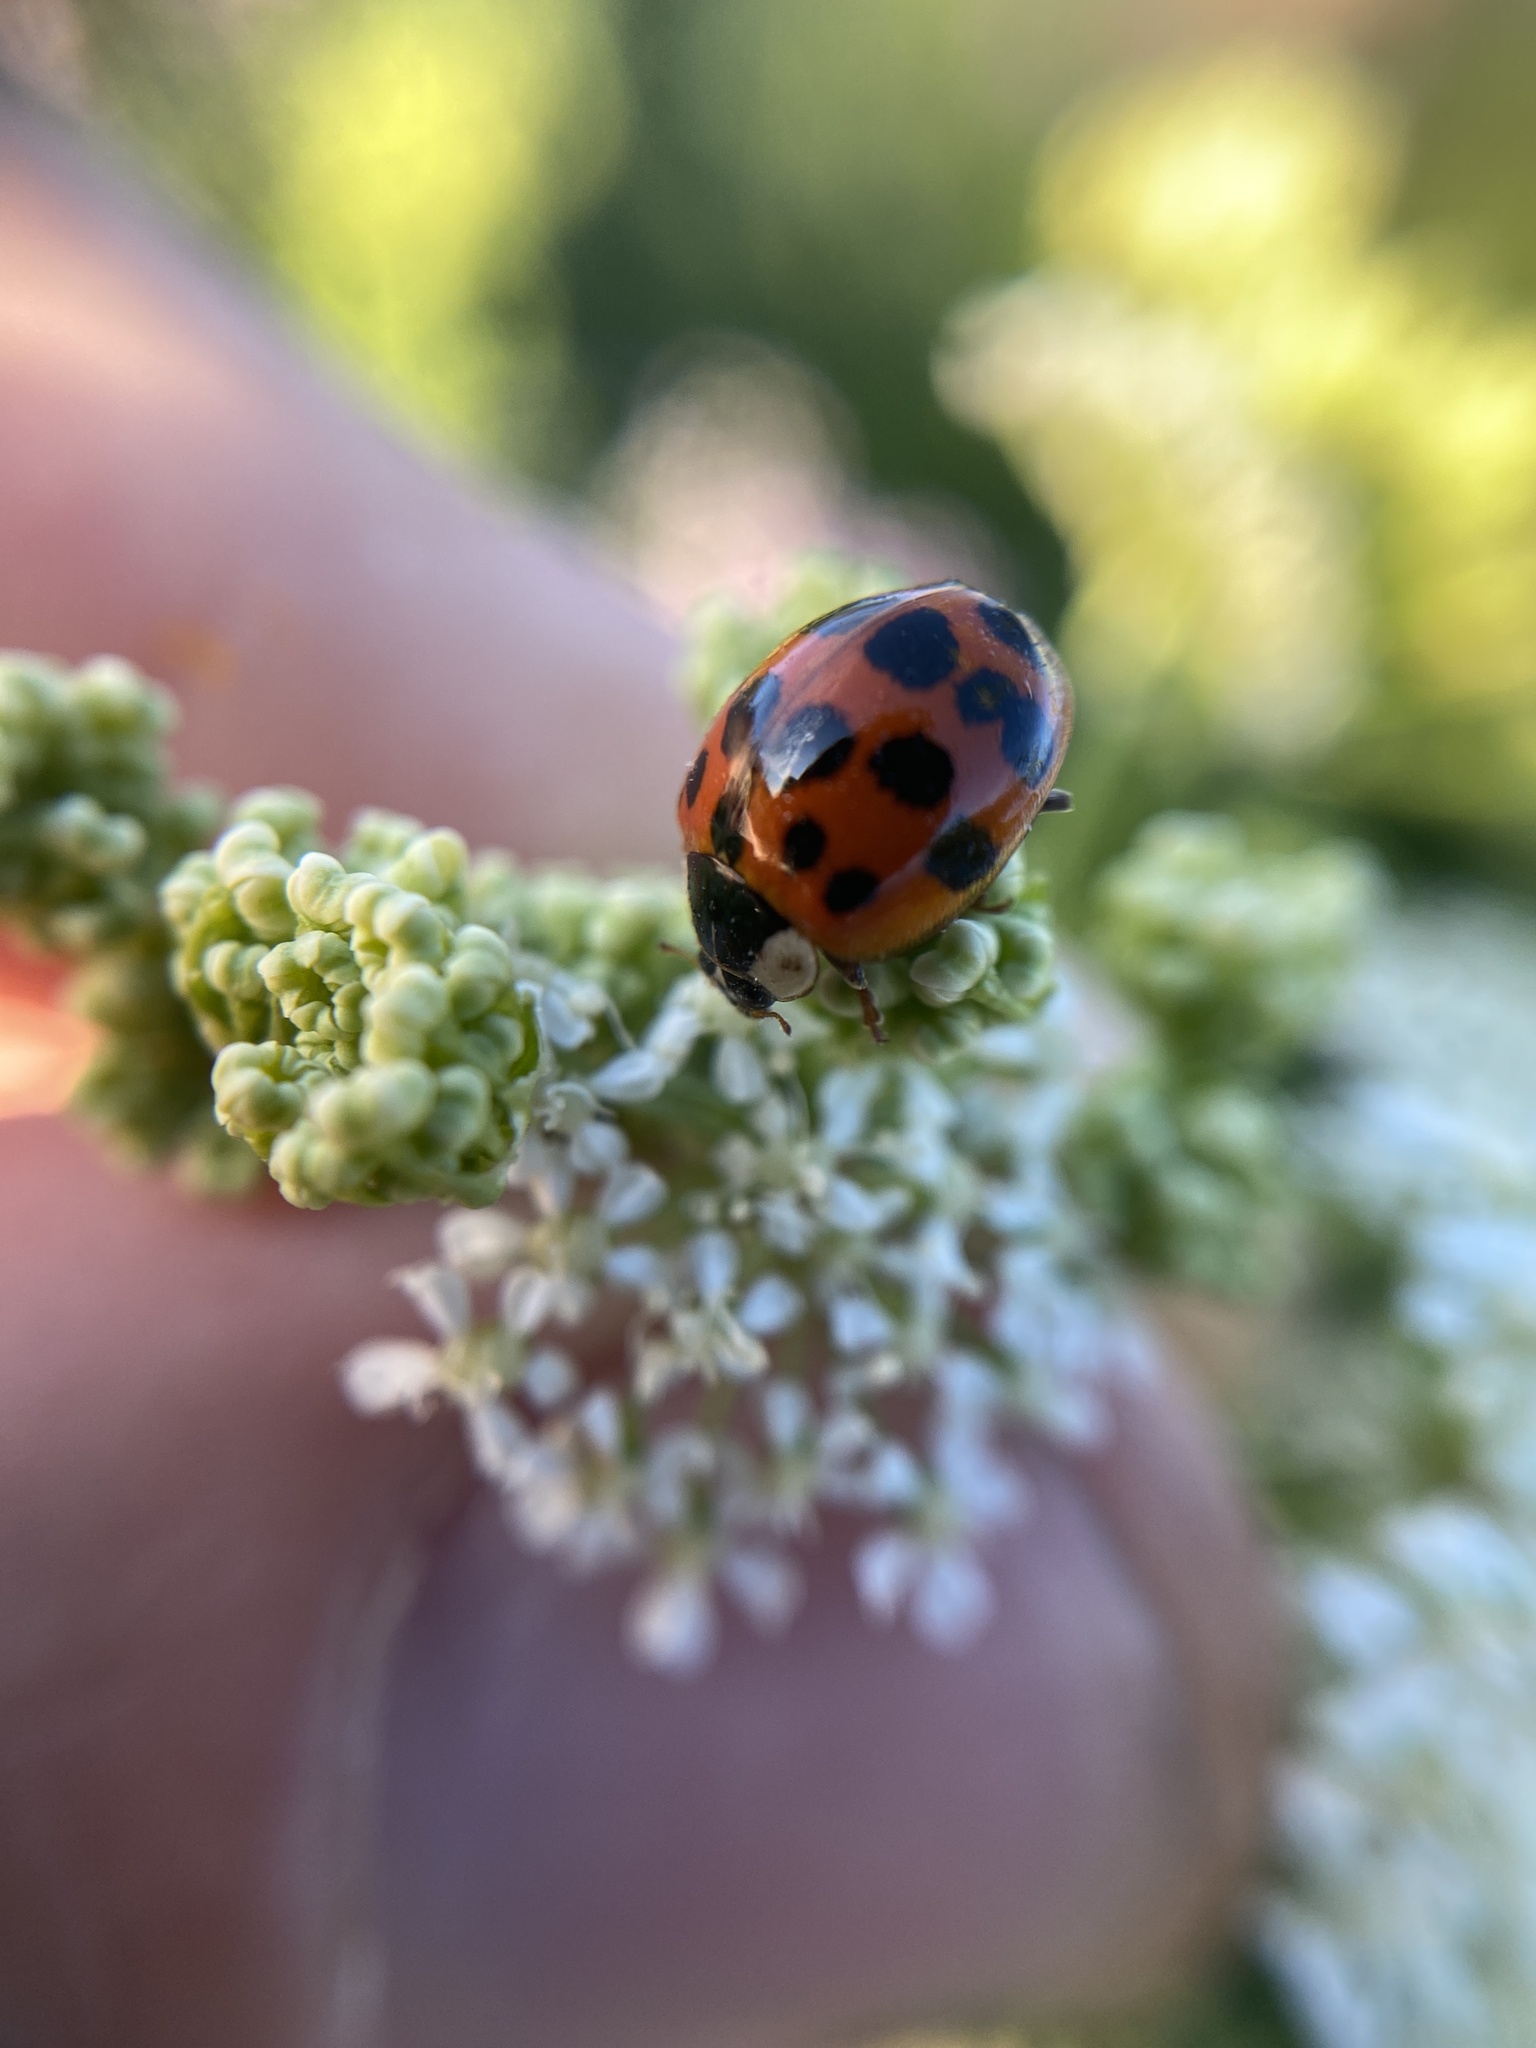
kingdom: Animalia
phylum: Arthropoda
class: Insecta
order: Coleoptera
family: Coccinellidae
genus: Harmonia
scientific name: Harmonia axyridis
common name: Harlequin ladybird
